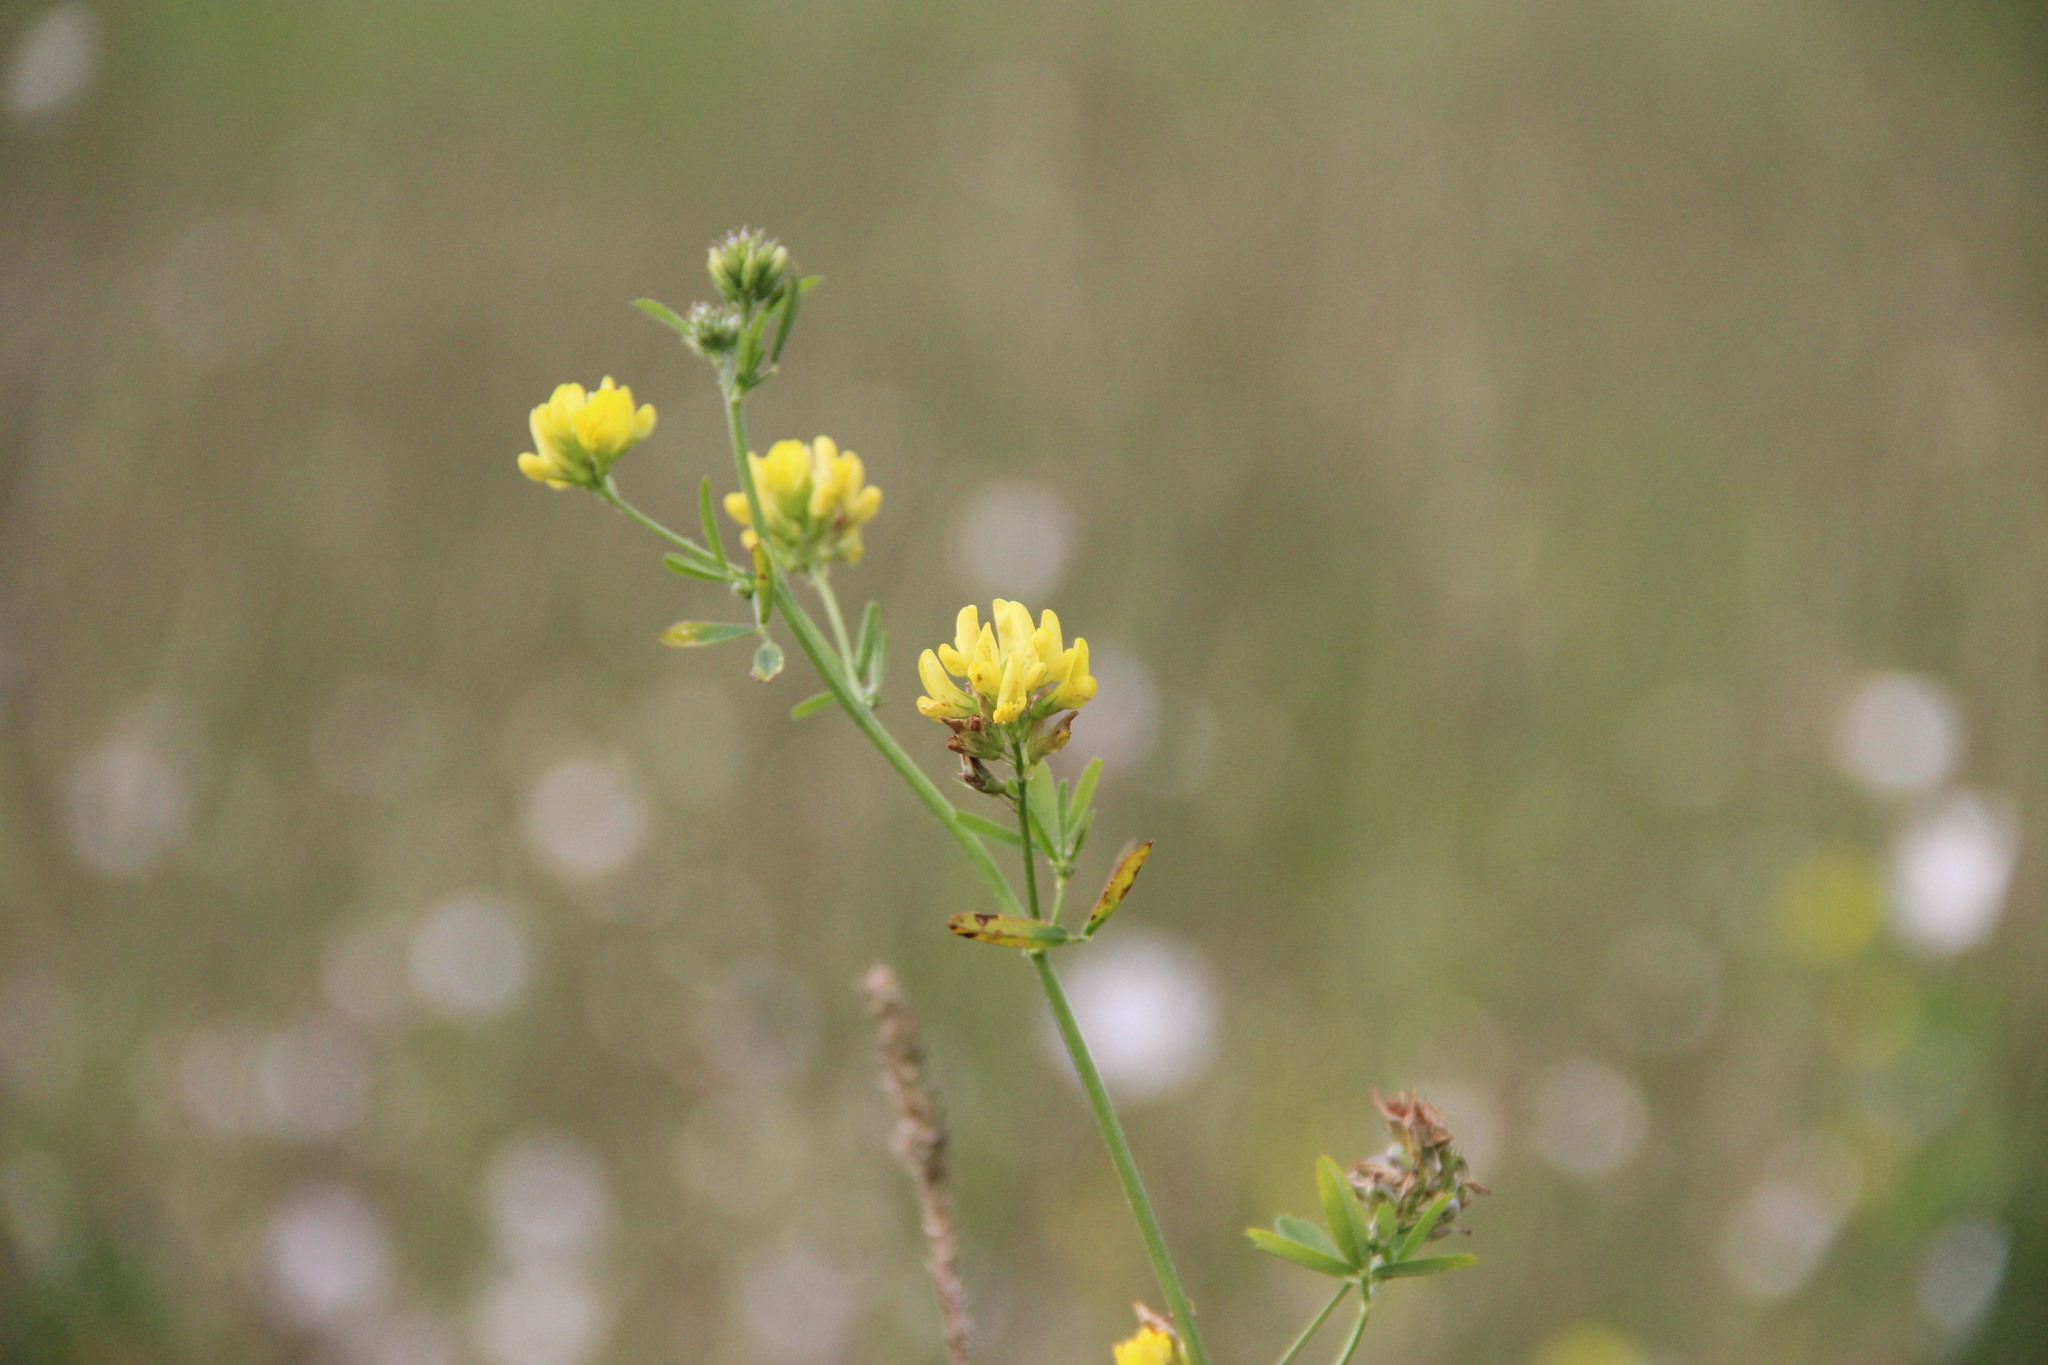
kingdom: Plantae
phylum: Tracheophyta
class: Magnoliopsida
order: Fabales
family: Fabaceae
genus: Medicago
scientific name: Medicago falcata
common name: Sickle medick
